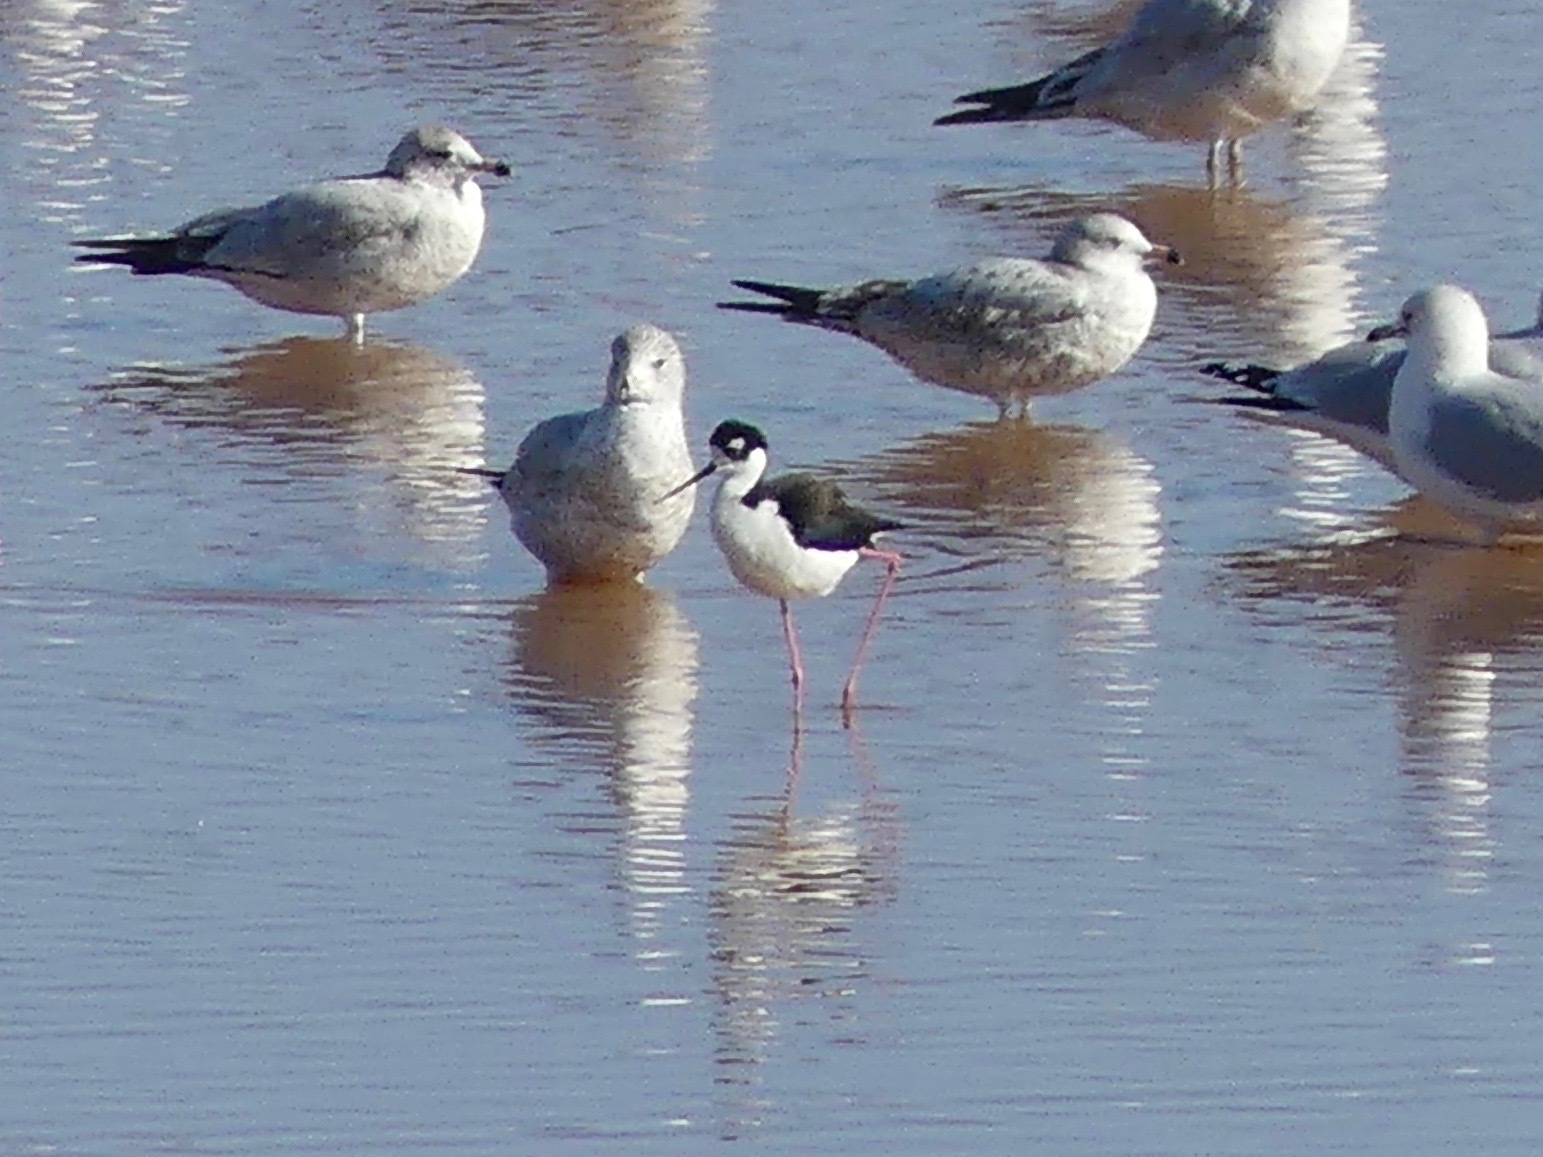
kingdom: Animalia
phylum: Chordata
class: Aves
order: Charadriiformes
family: Recurvirostridae
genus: Himantopus
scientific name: Himantopus mexicanus
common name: Black-necked stilt
